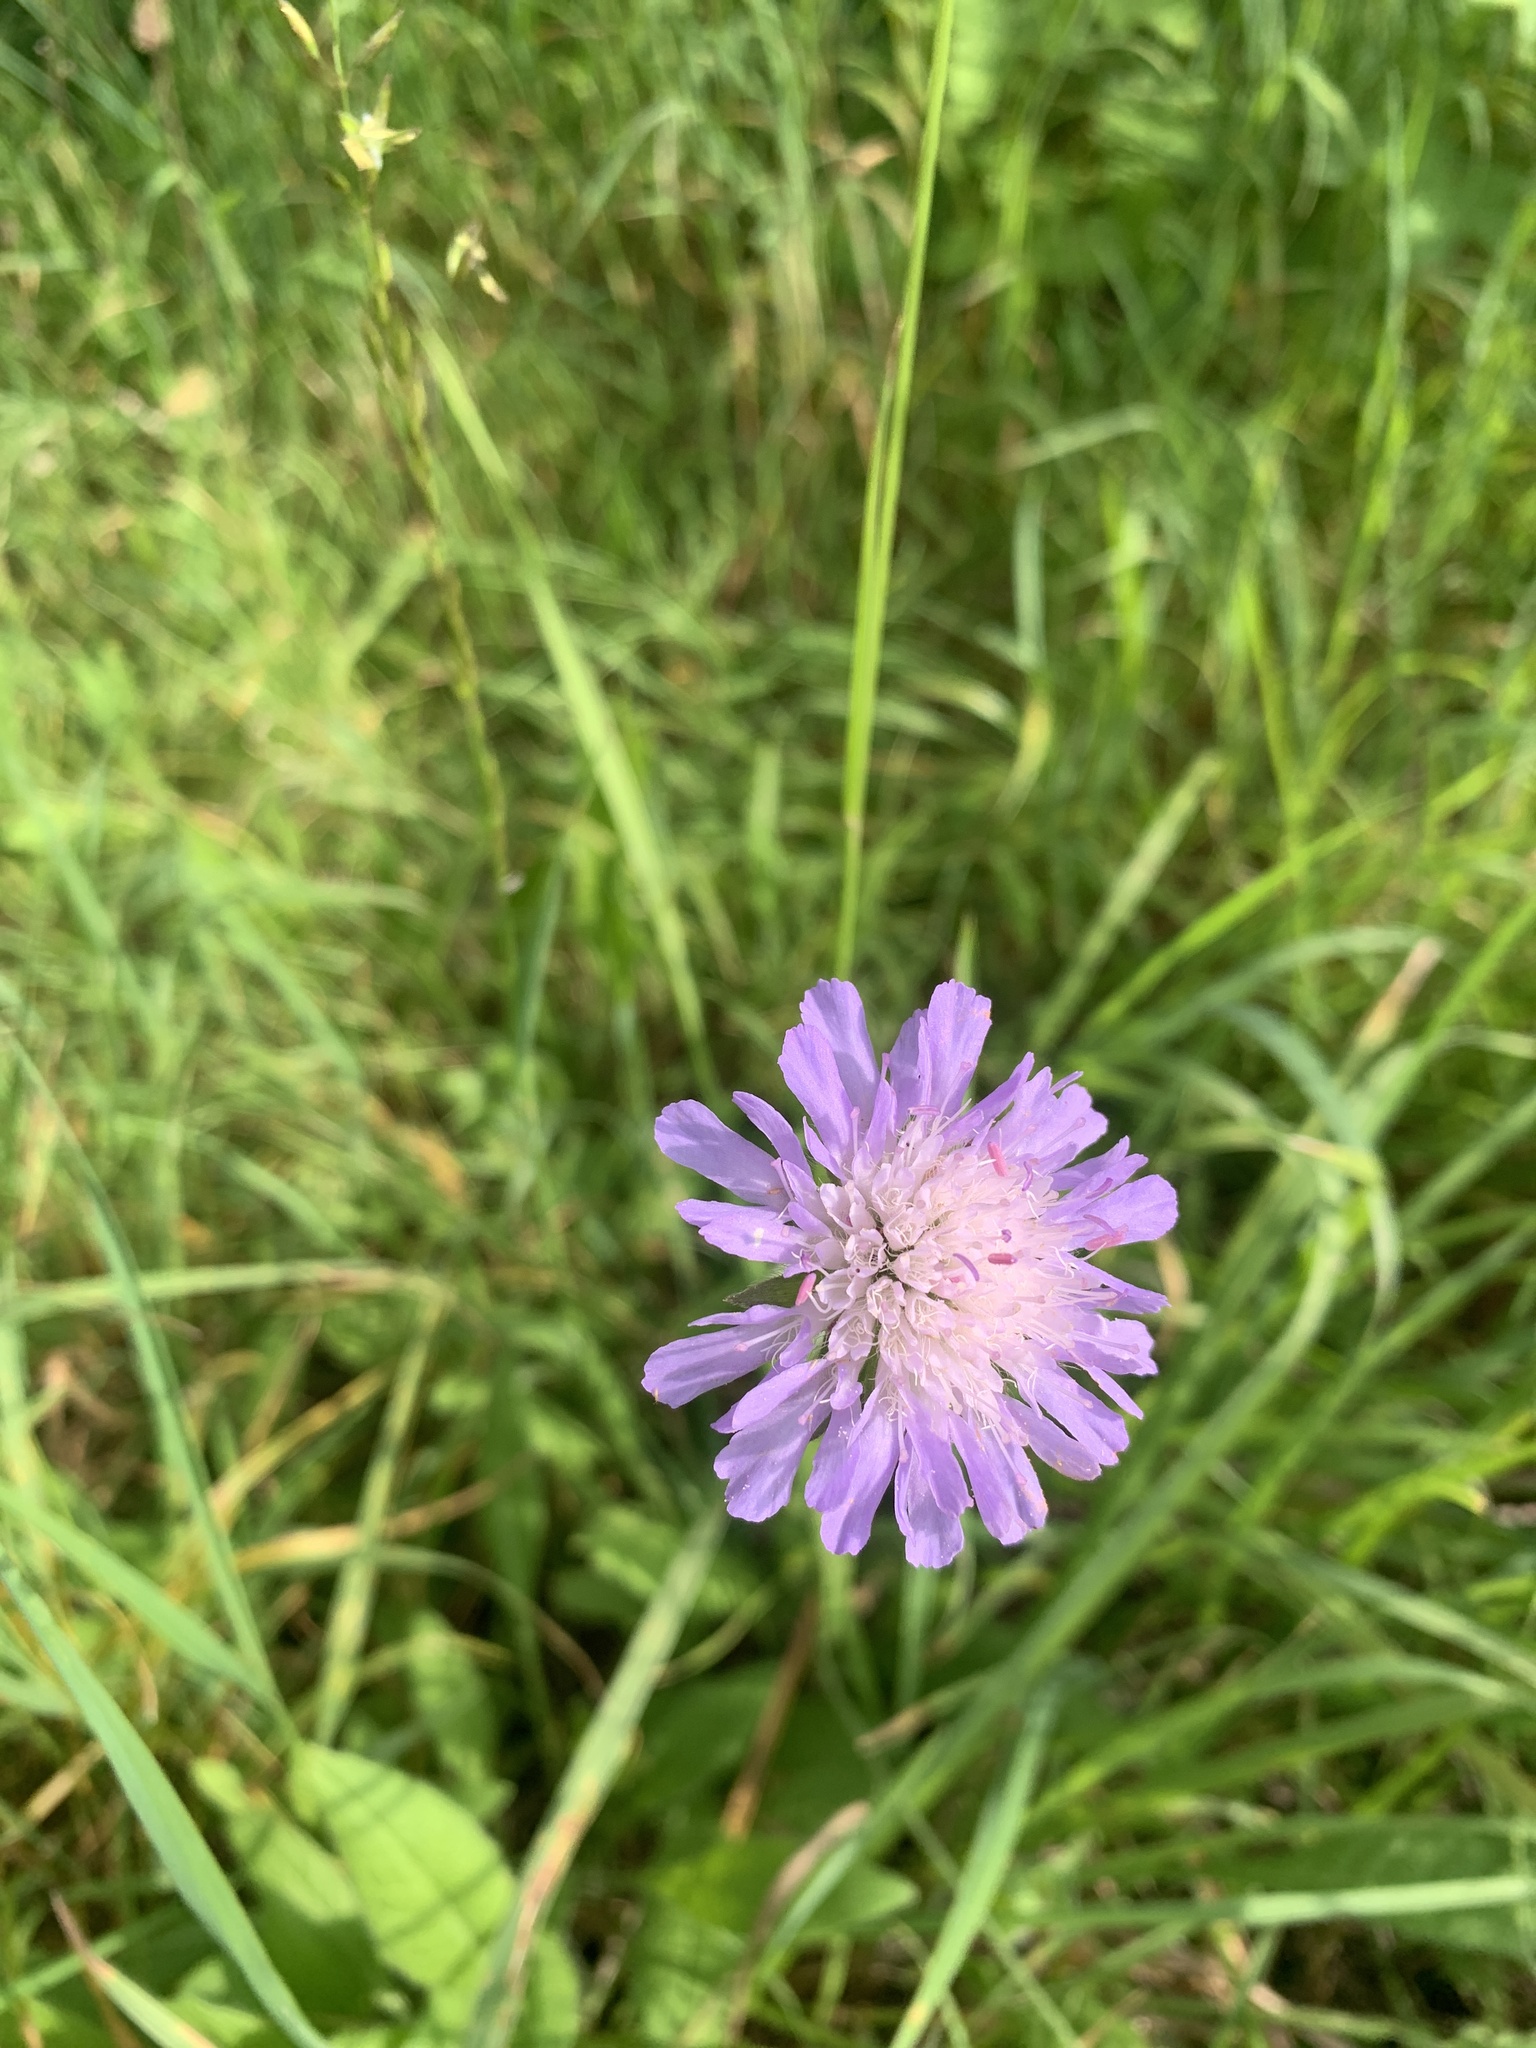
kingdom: Plantae
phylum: Tracheophyta
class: Magnoliopsida
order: Dipsacales
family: Caprifoliaceae
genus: Knautia
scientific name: Knautia arvensis
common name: Field scabiosa
